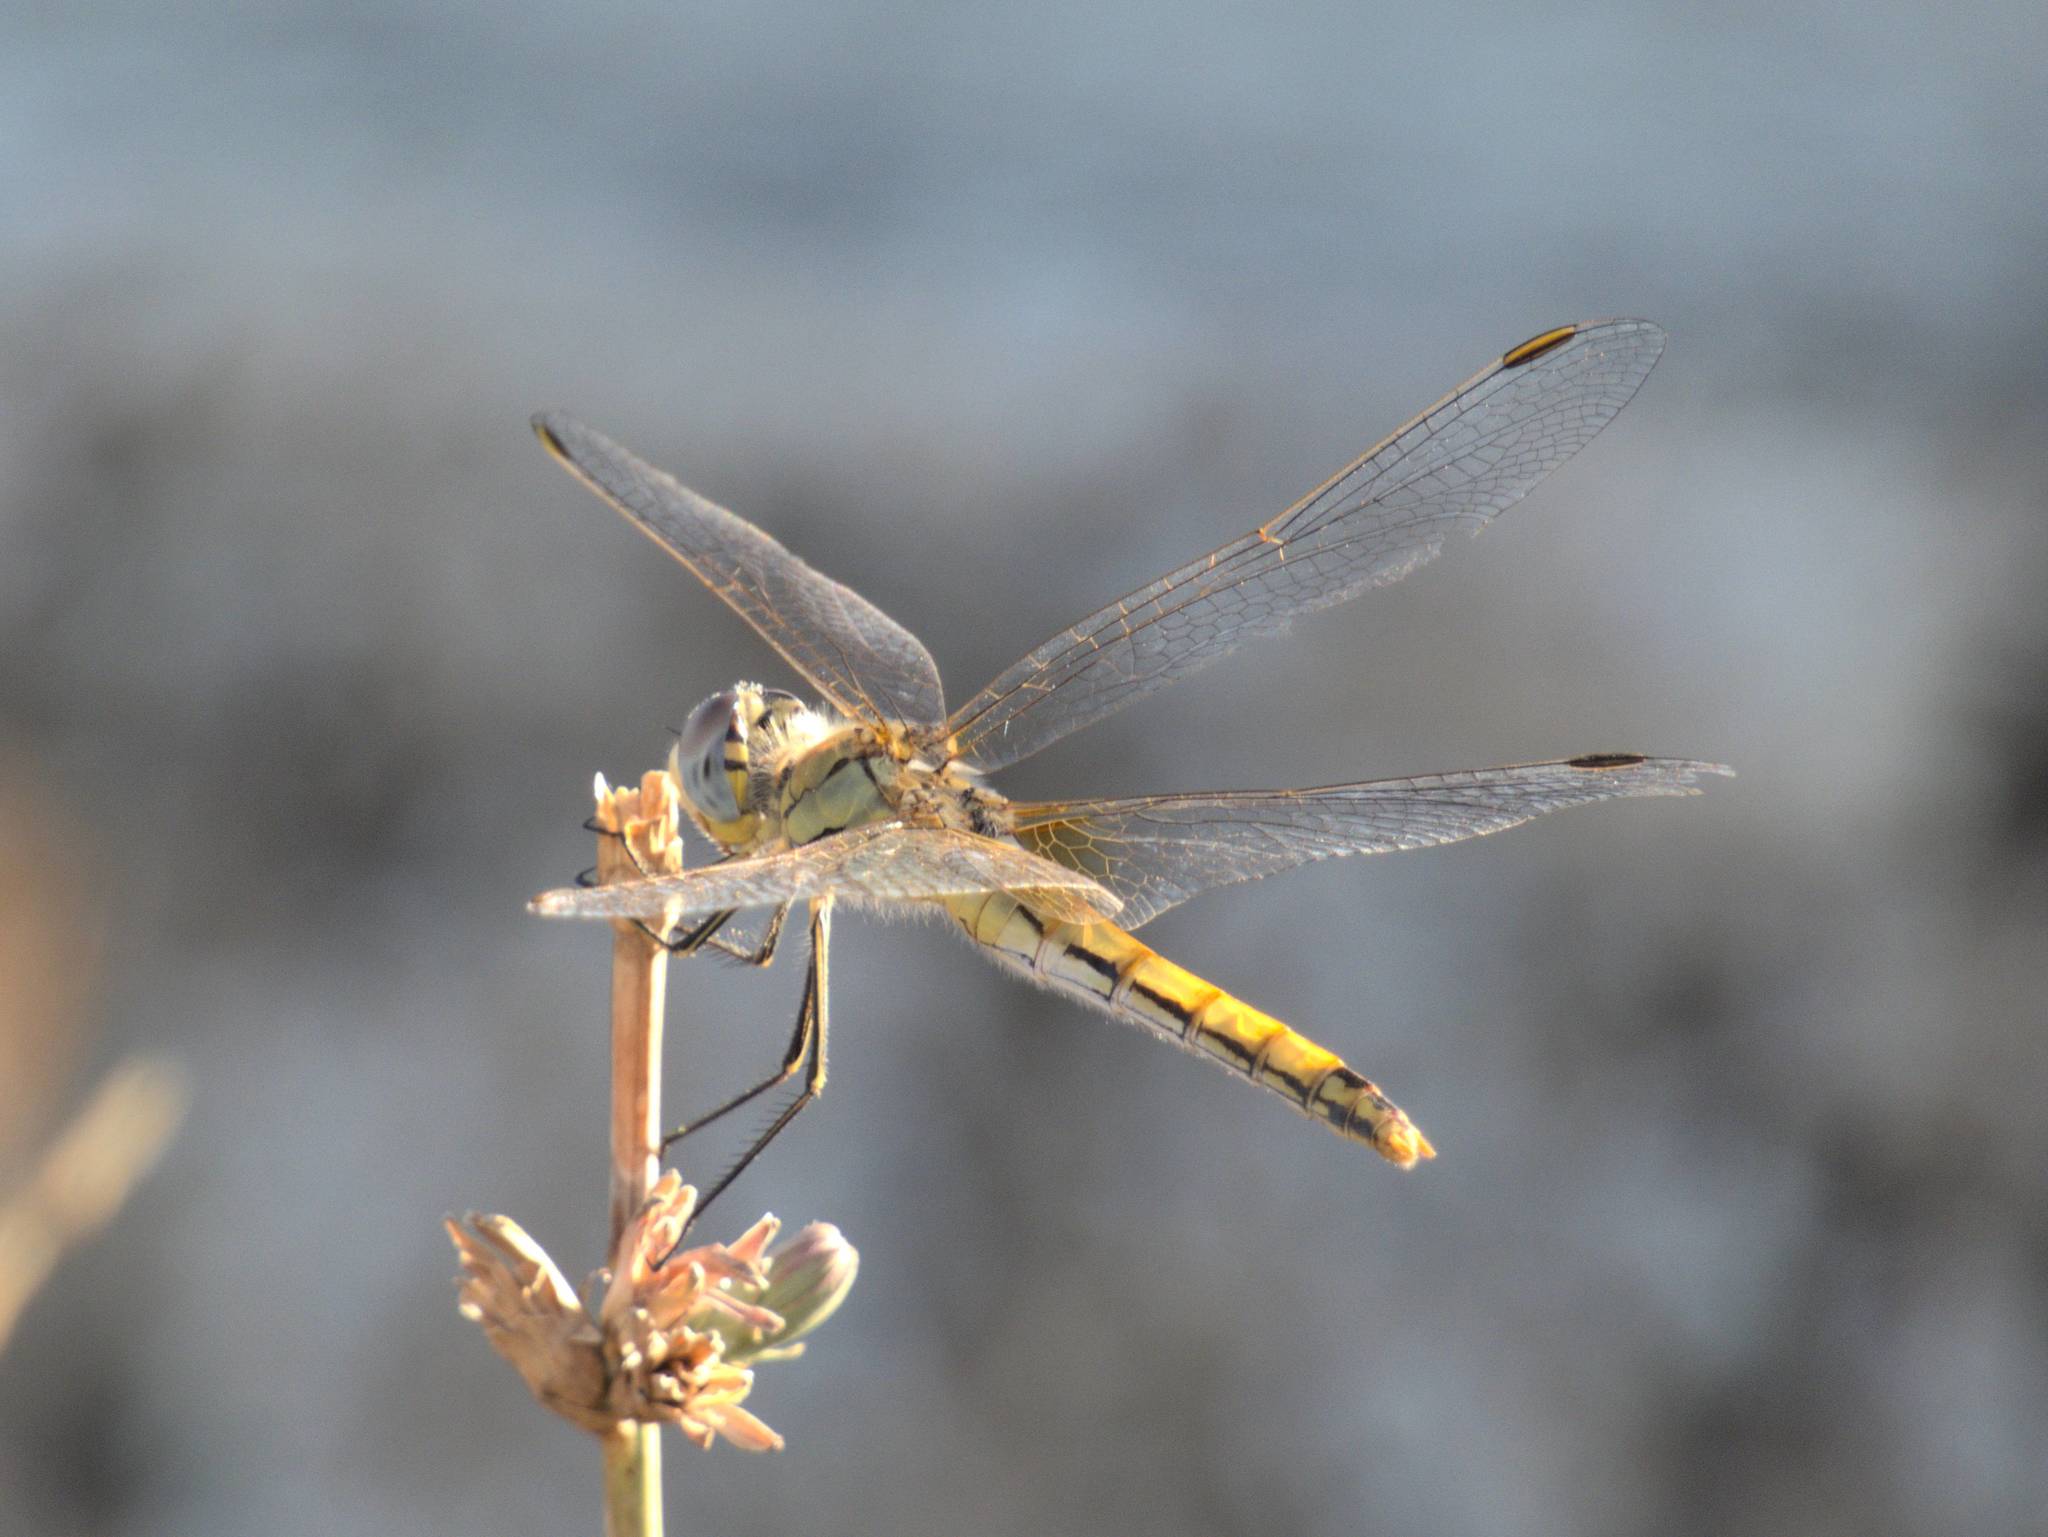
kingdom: Animalia
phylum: Arthropoda
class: Insecta
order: Odonata
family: Libellulidae
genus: Sympetrum
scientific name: Sympetrum fonscolombii
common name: Red-veined darter
